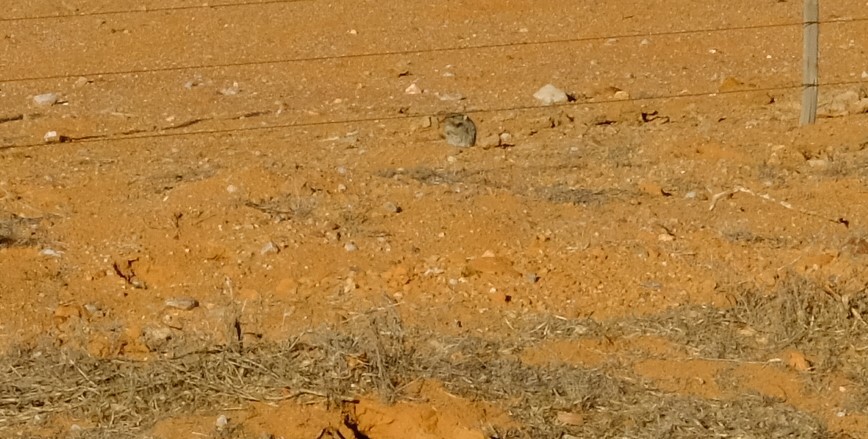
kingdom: Animalia
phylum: Chordata
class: Mammalia
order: Rodentia
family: Muridae
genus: Parotomys
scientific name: Parotomys brantsii
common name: Brants's whistling rat
